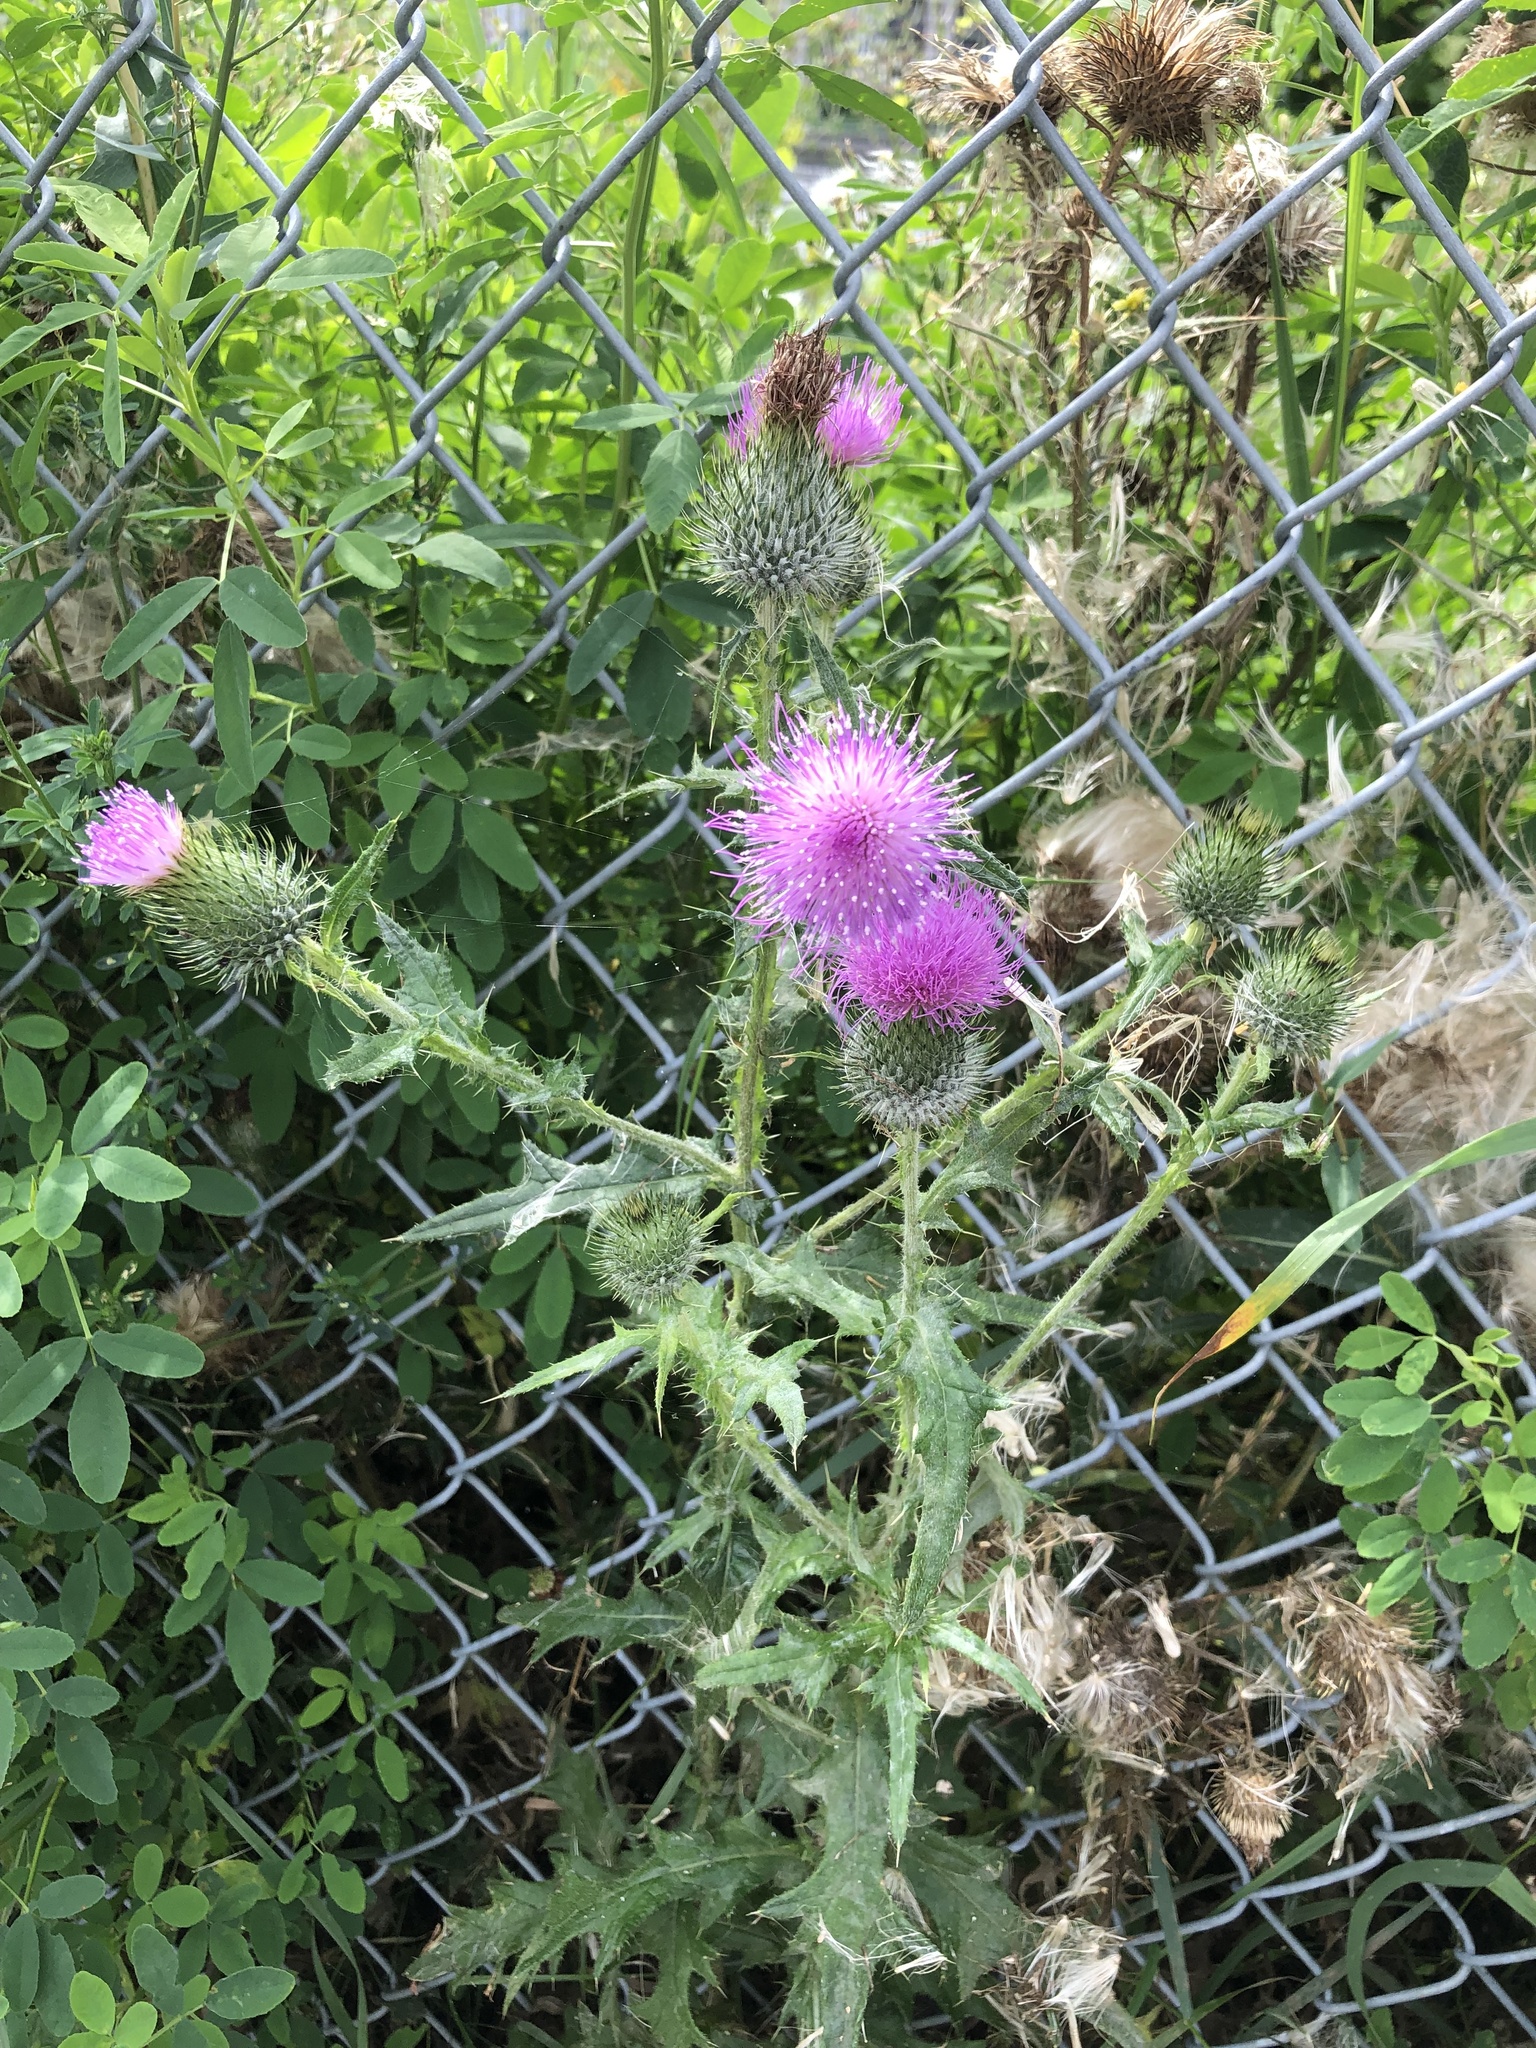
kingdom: Plantae
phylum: Tracheophyta
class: Magnoliopsida
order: Asterales
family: Asteraceae
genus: Cirsium
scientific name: Cirsium vulgare
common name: Bull thistle
